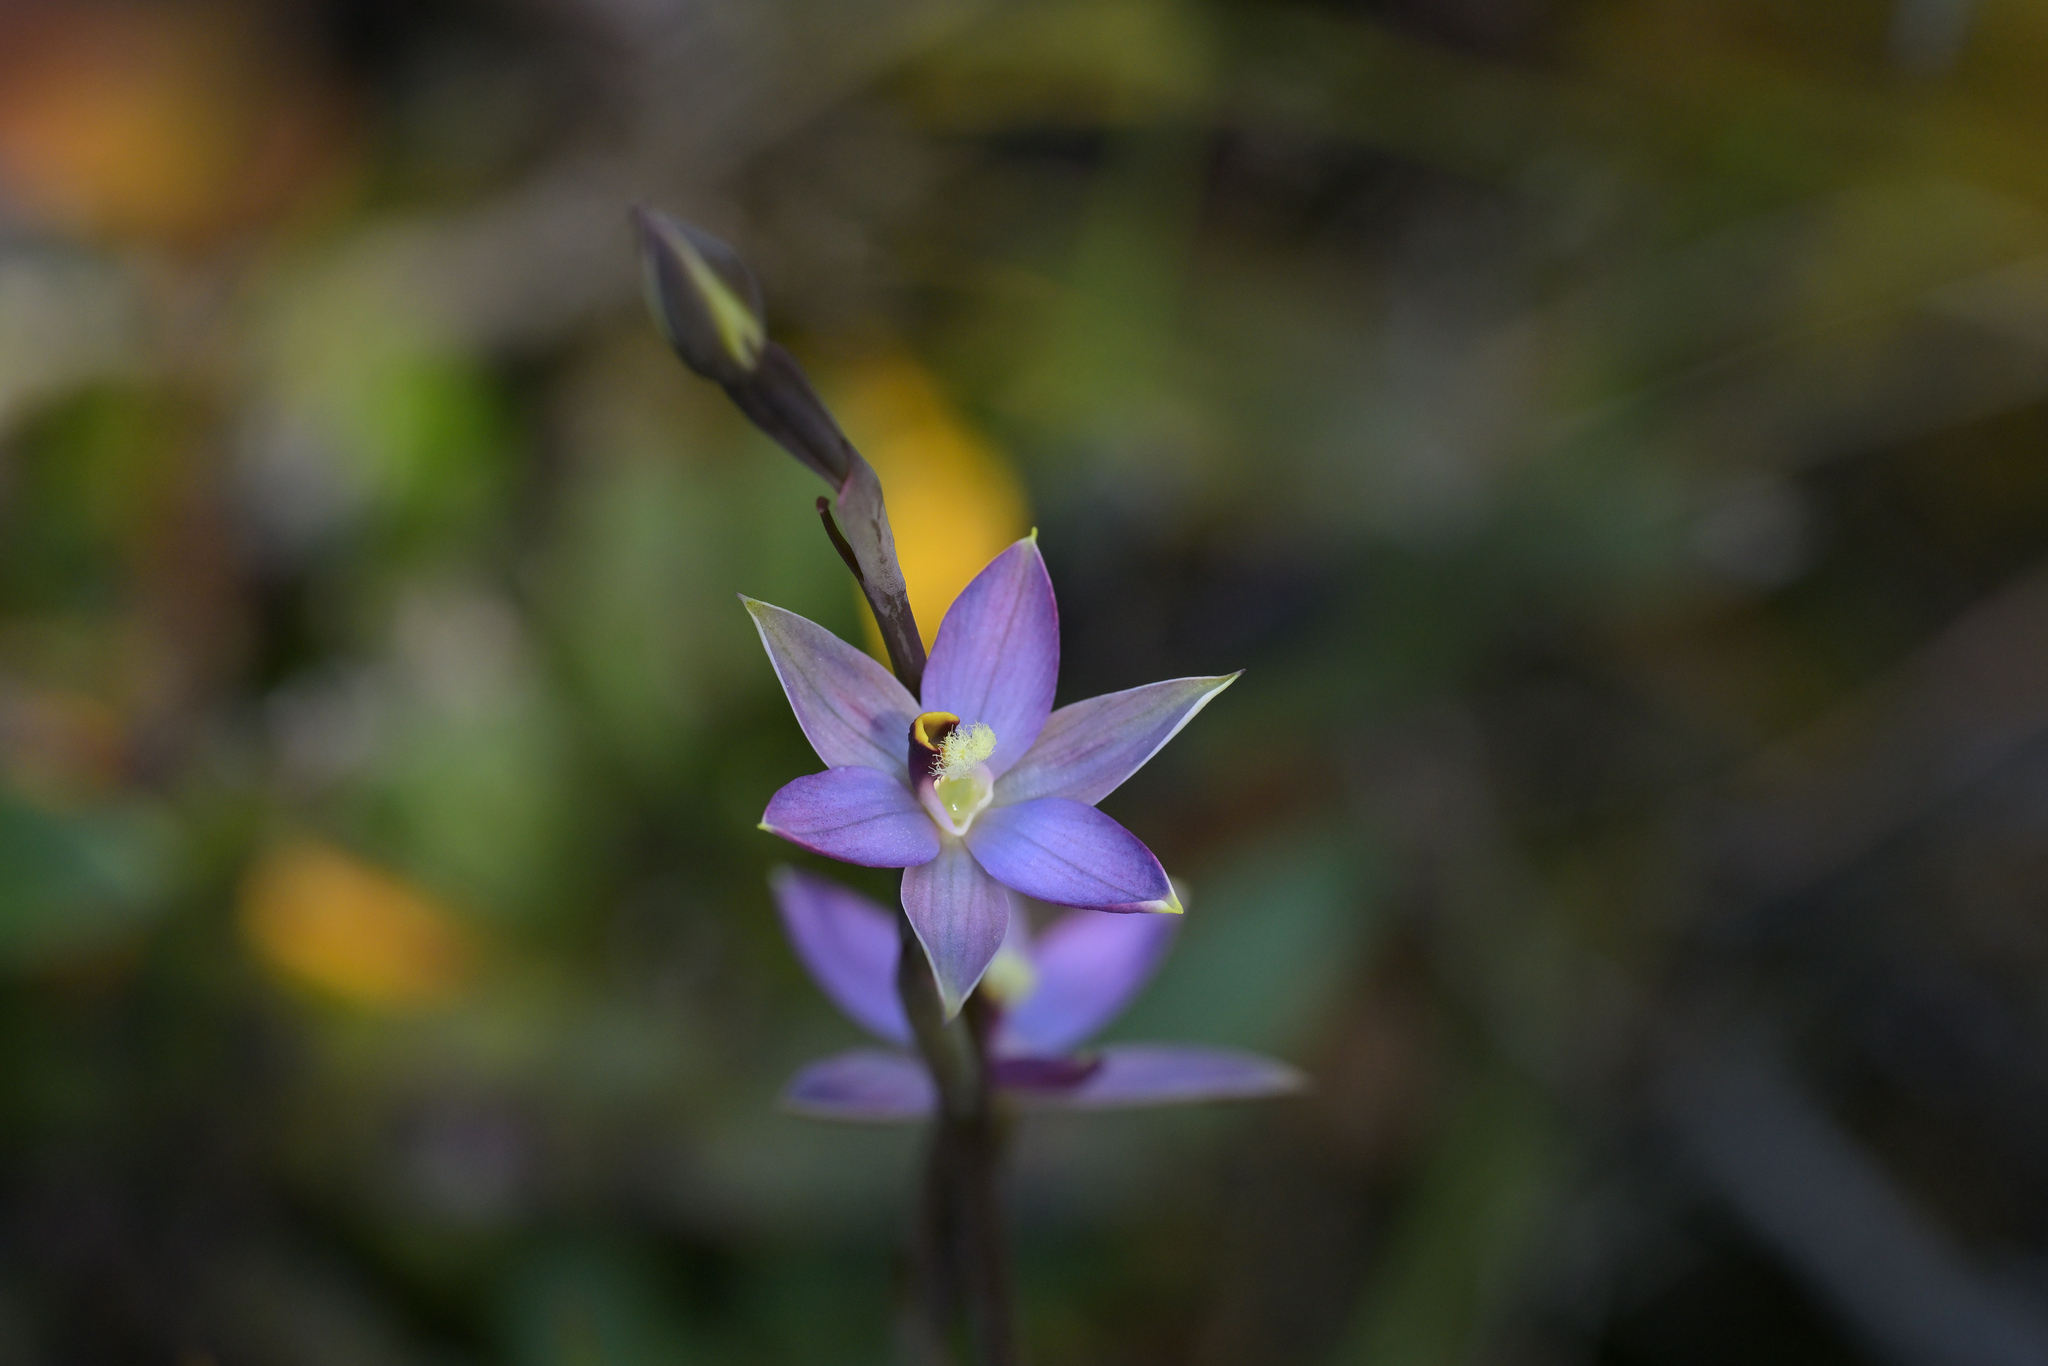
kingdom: Plantae
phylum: Tracheophyta
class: Liliopsida
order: Asparagales
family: Orchidaceae
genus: Thelymitra
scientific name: Thelymitra hatchii
